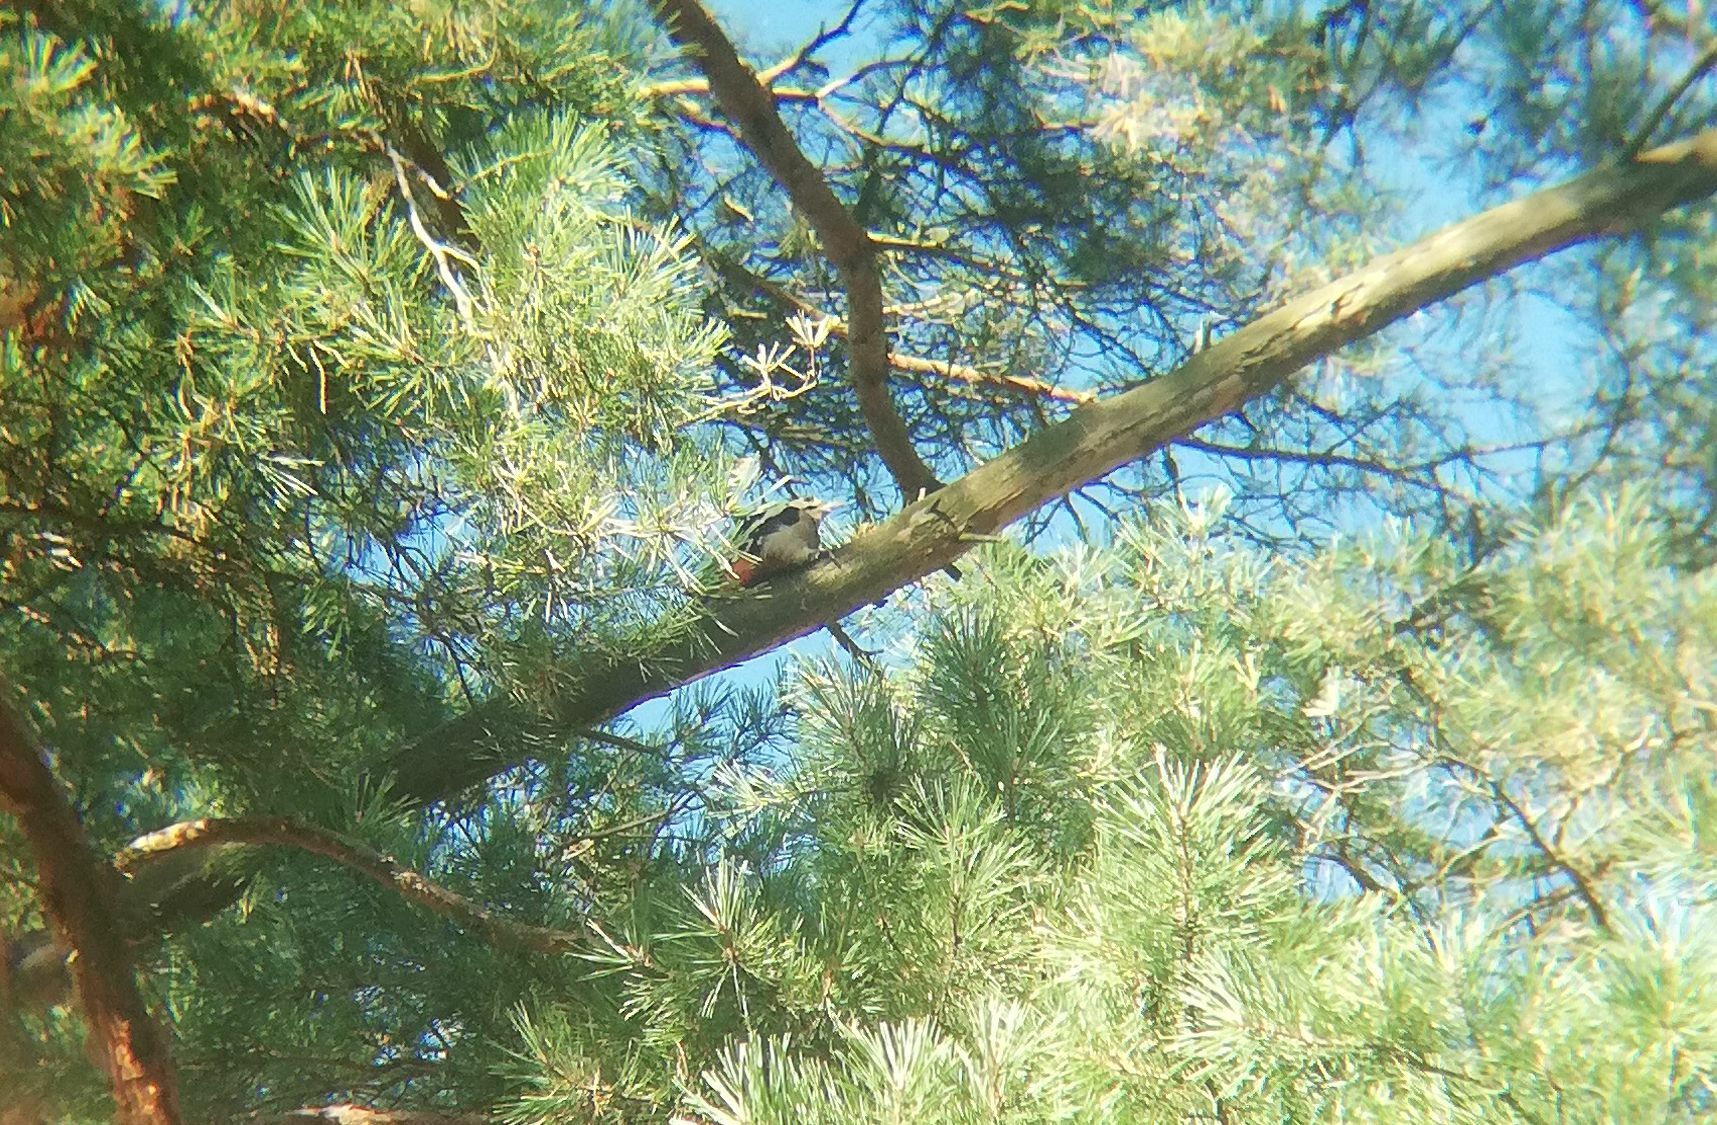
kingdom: Animalia
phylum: Chordata
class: Aves
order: Piciformes
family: Picidae
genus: Dendrocopos
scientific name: Dendrocopos major
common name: Great spotted woodpecker
